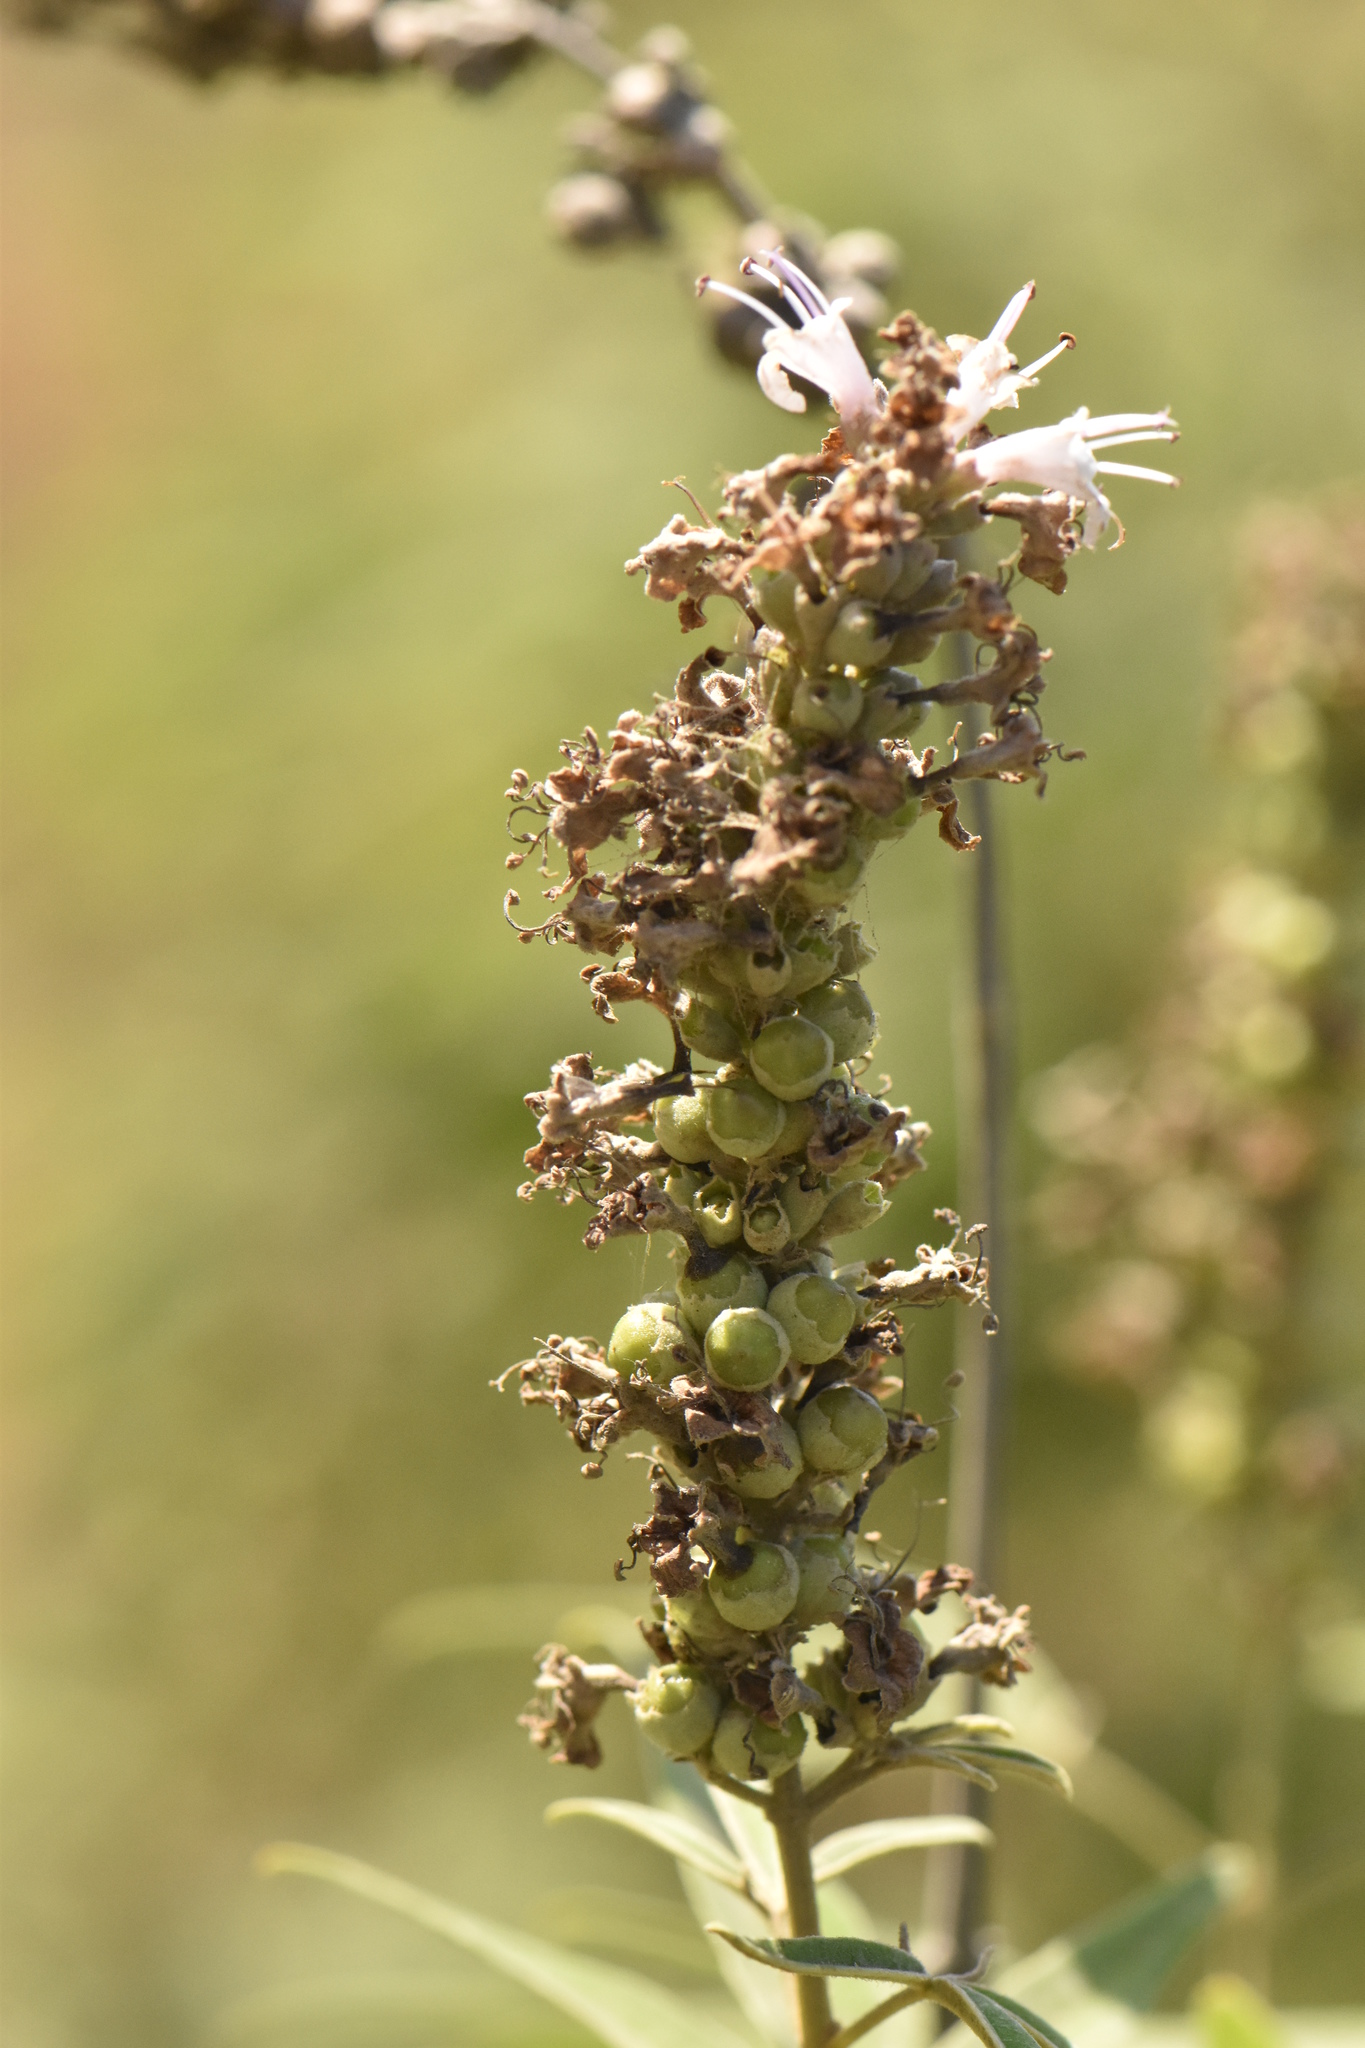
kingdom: Plantae
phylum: Tracheophyta
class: Magnoliopsida
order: Lamiales
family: Lamiaceae
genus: Vitex
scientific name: Vitex agnus-castus
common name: Chasteberry
